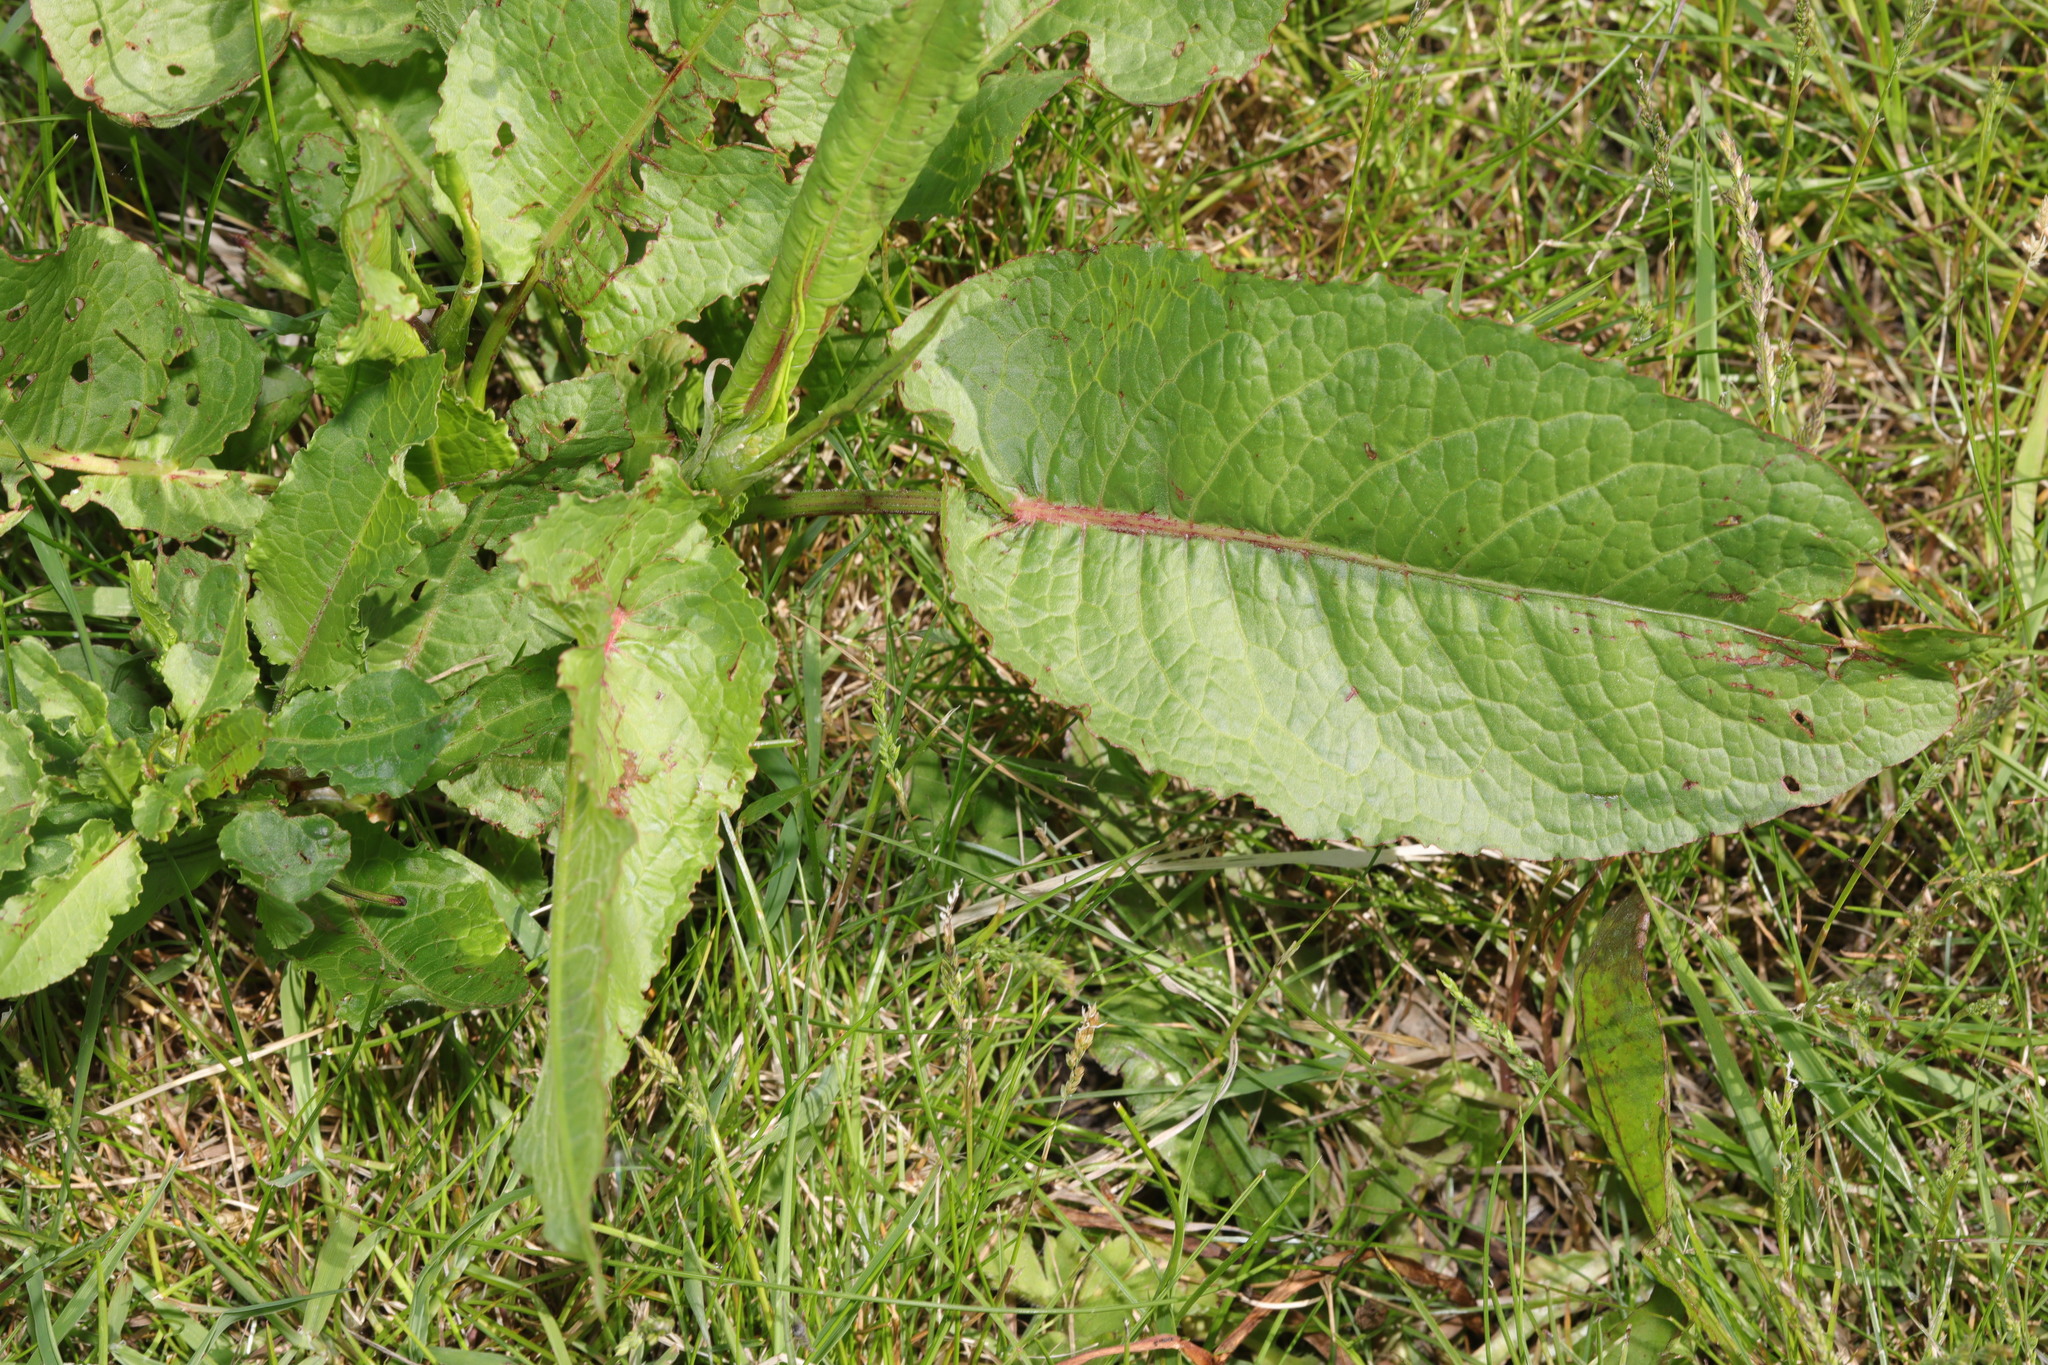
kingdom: Plantae
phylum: Tracheophyta
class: Magnoliopsida
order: Caryophyllales
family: Polygonaceae
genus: Rumex
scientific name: Rumex obtusifolius
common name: Bitter dock
